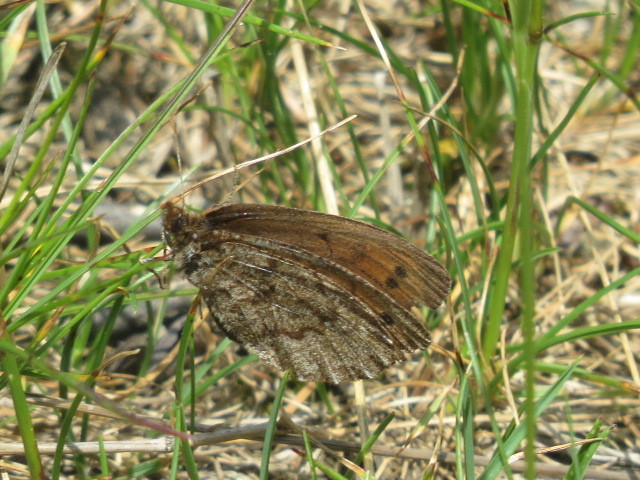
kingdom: Animalia
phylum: Arthropoda
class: Insecta
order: Lepidoptera
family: Nymphalidae
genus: Erebia
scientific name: Erebia pandrose
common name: Dewy ringlet
